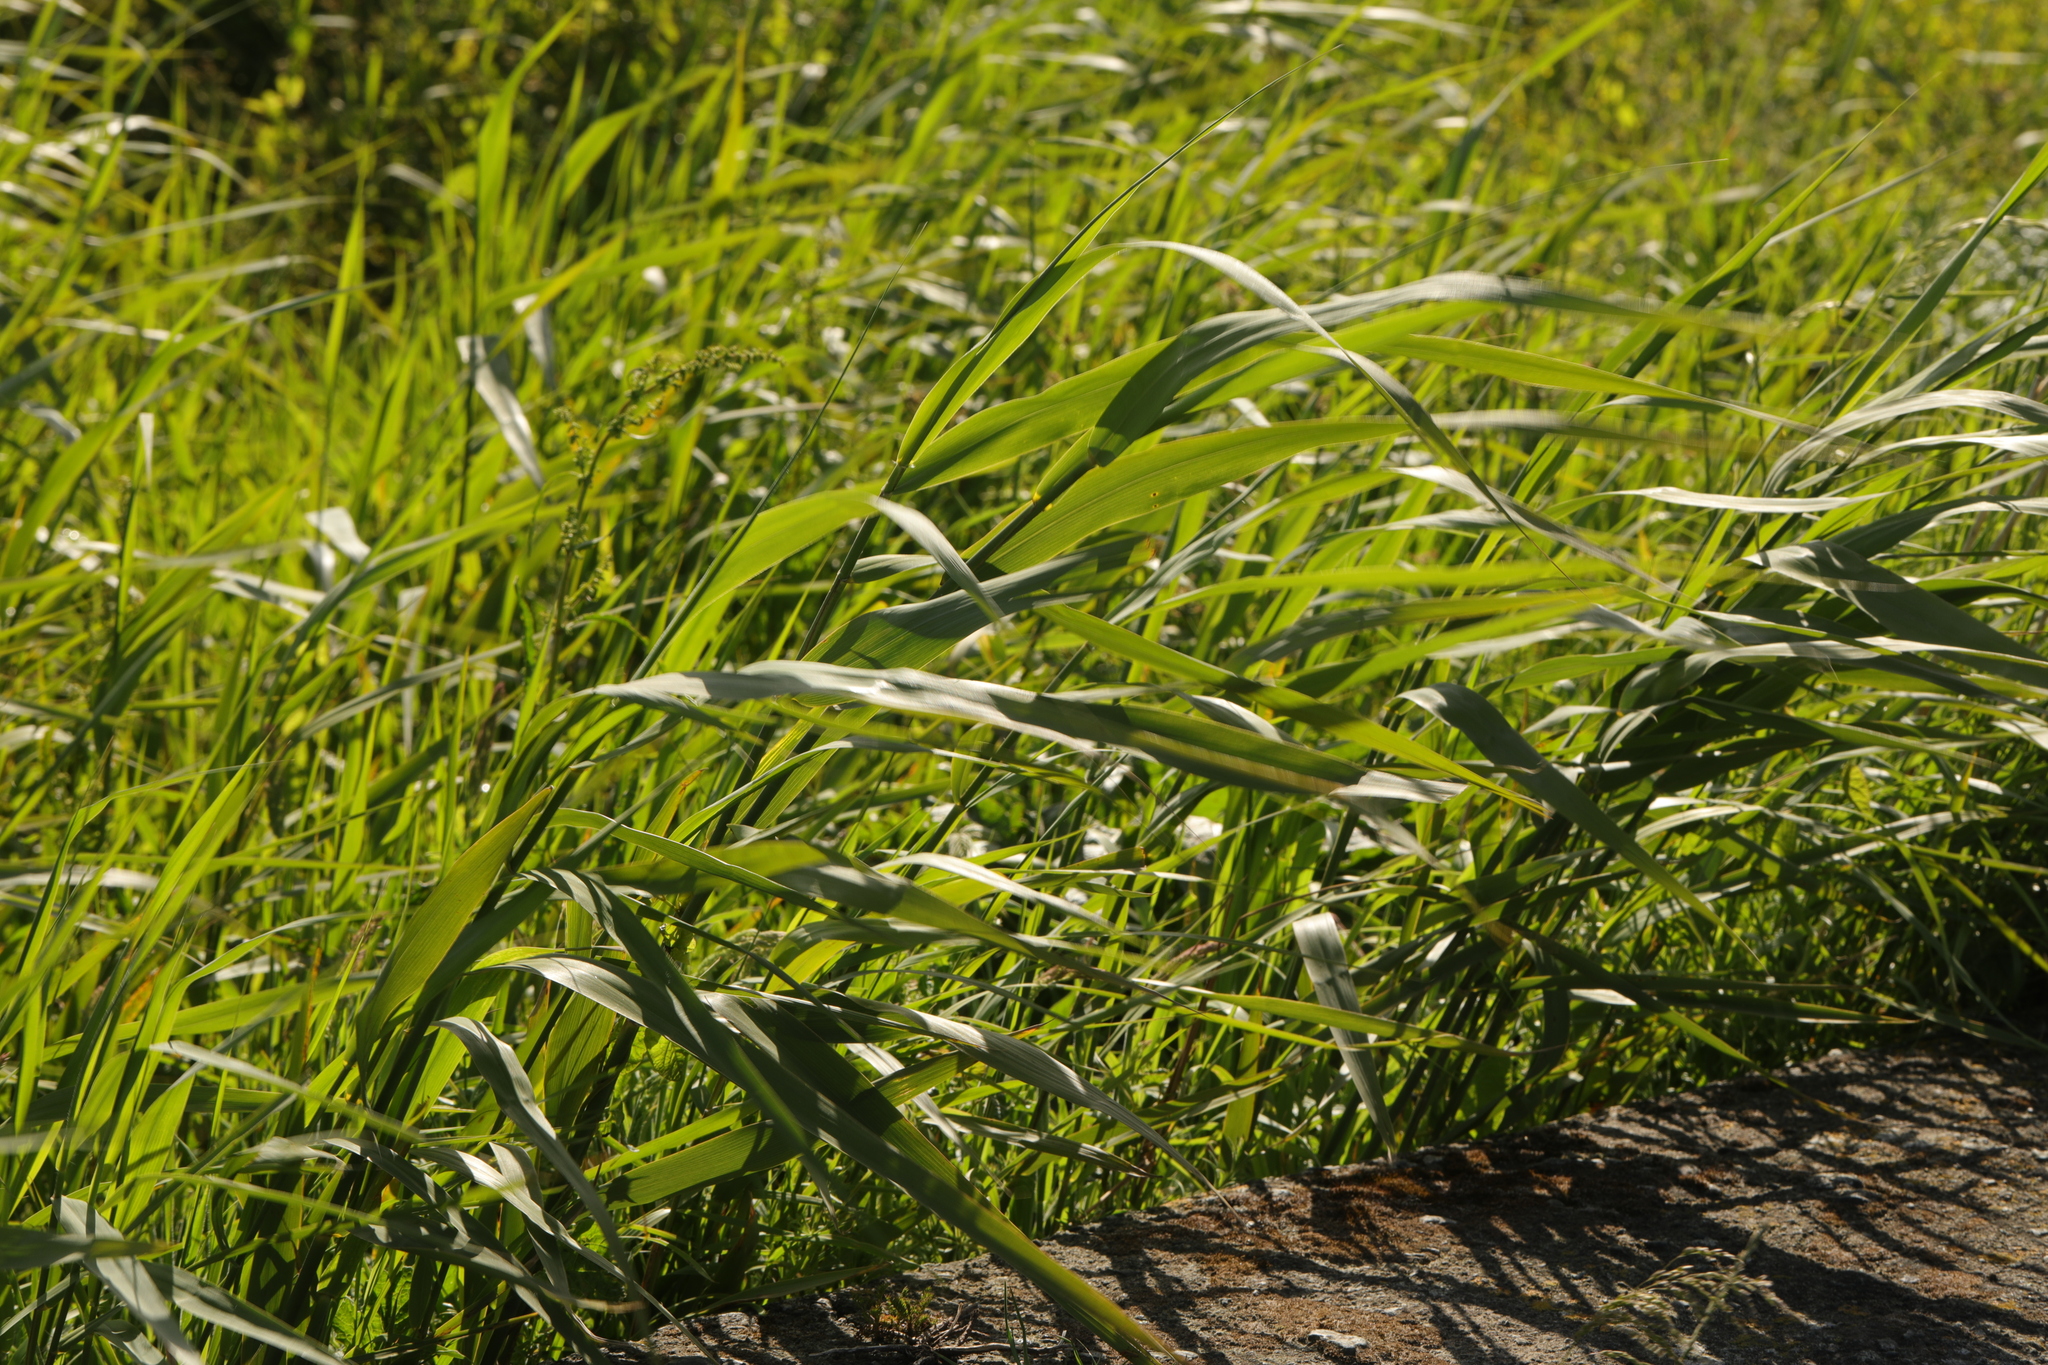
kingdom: Plantae
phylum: Tracheophyta
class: Liliopsida
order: Poales
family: Poaceae
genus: Phragmites
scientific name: Phragmites australis
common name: Common reed
